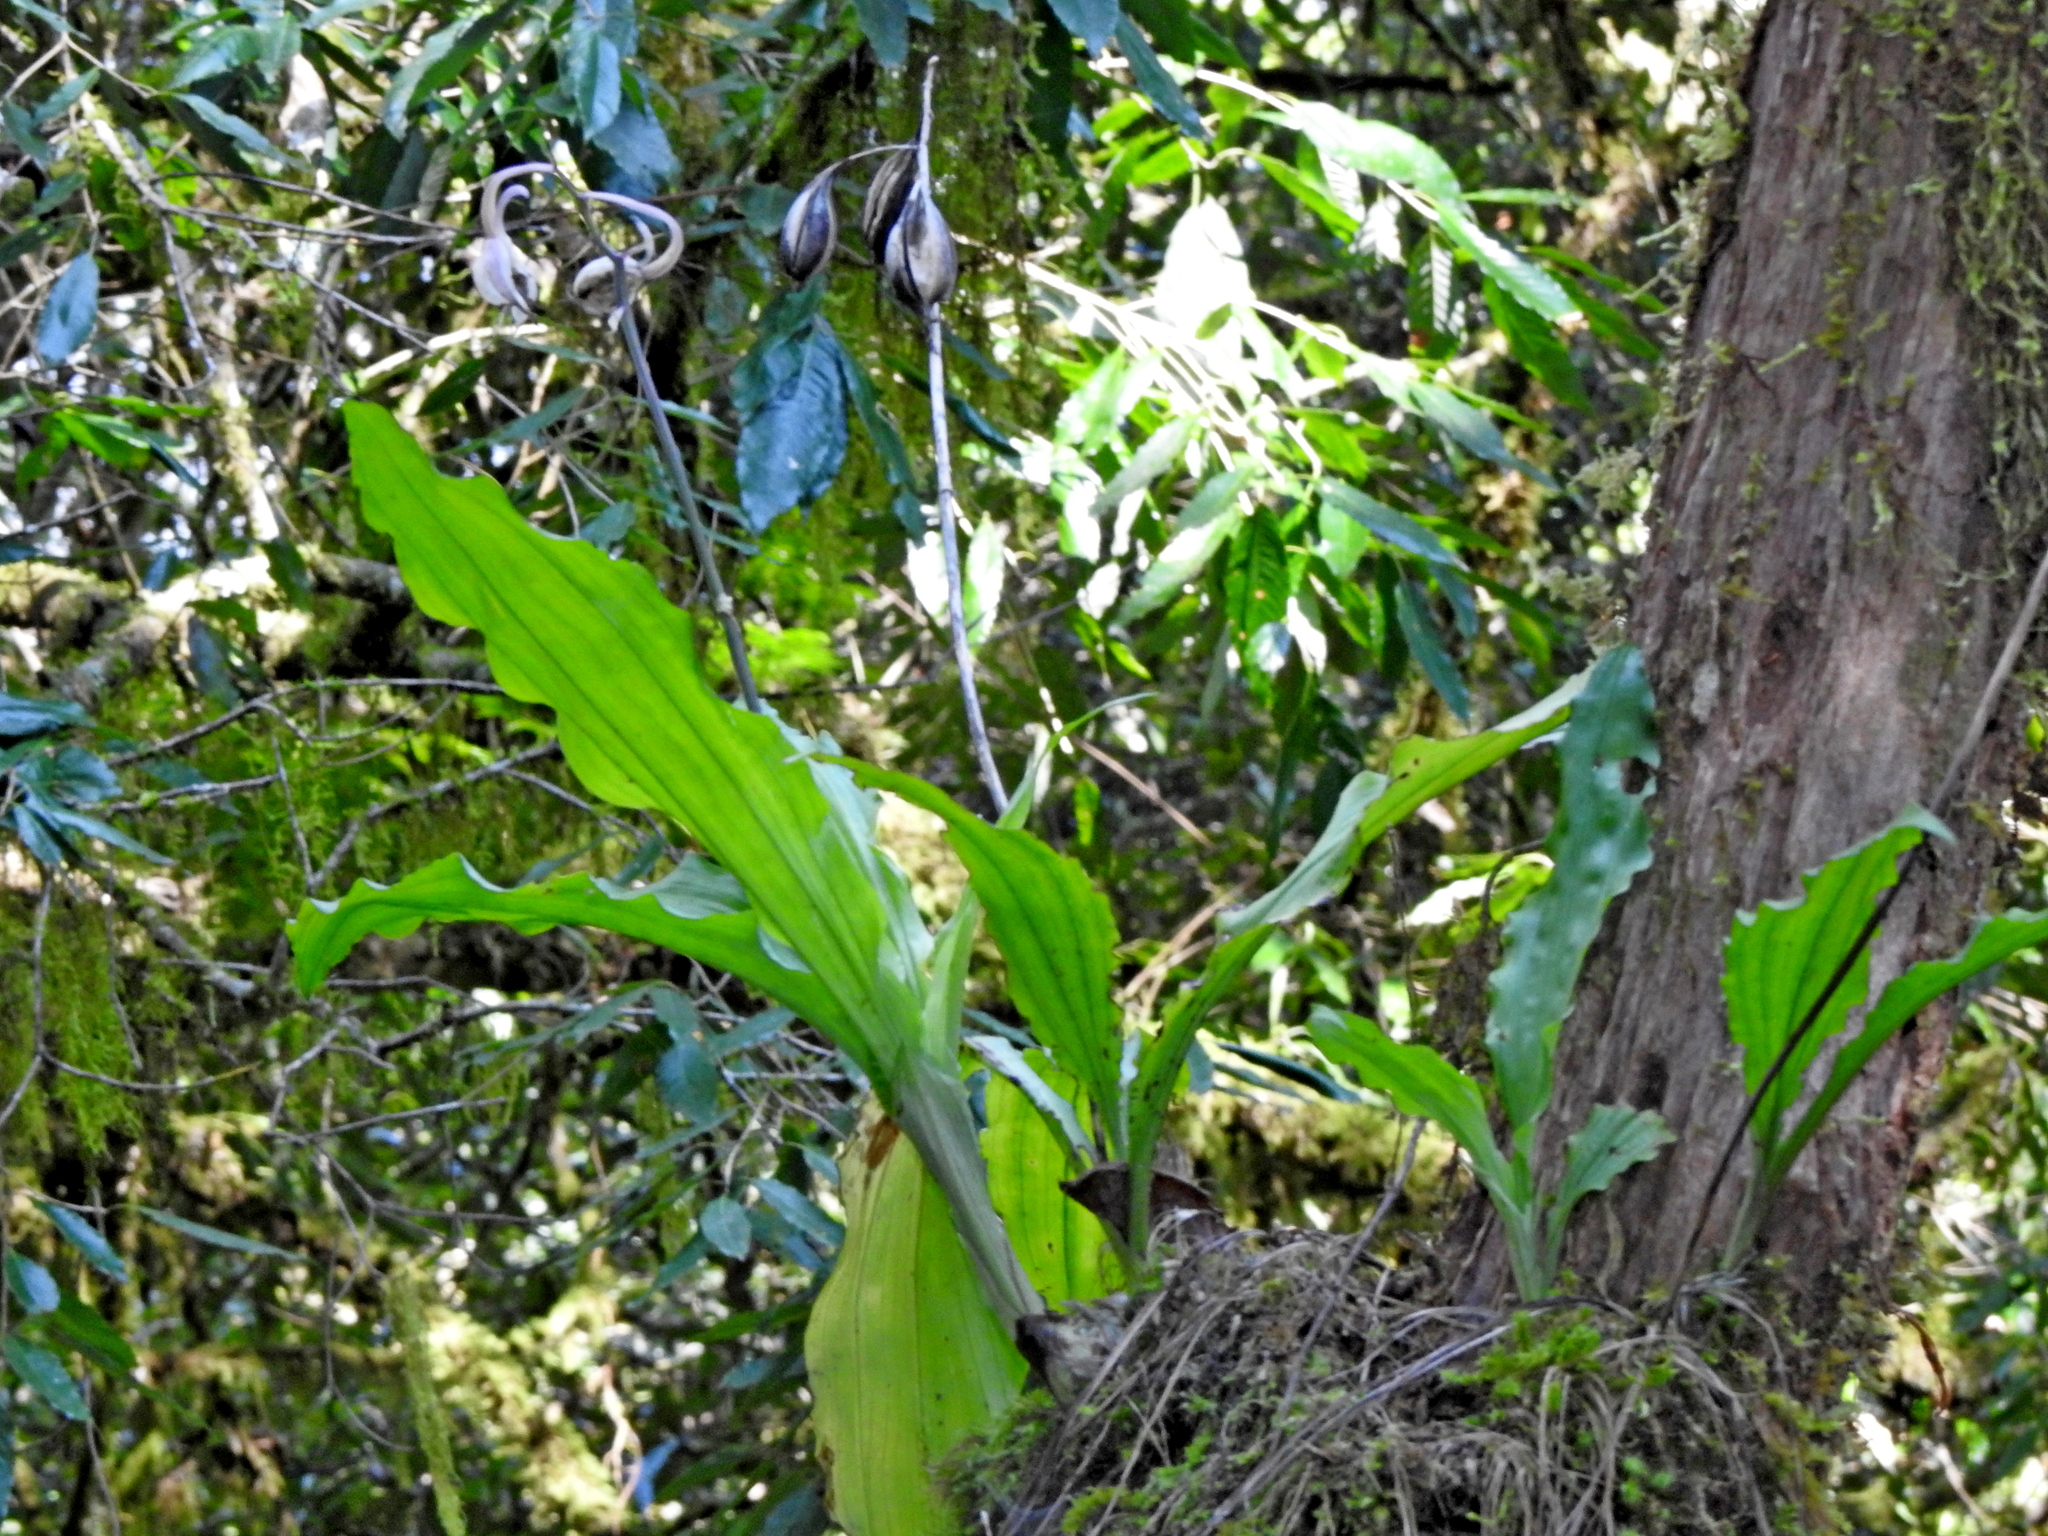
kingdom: Plantae
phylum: Tracheophyta
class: Liliopsida
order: Asparagales
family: Orchidaceae
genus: Calanthe
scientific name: Calanthe arisanensis
